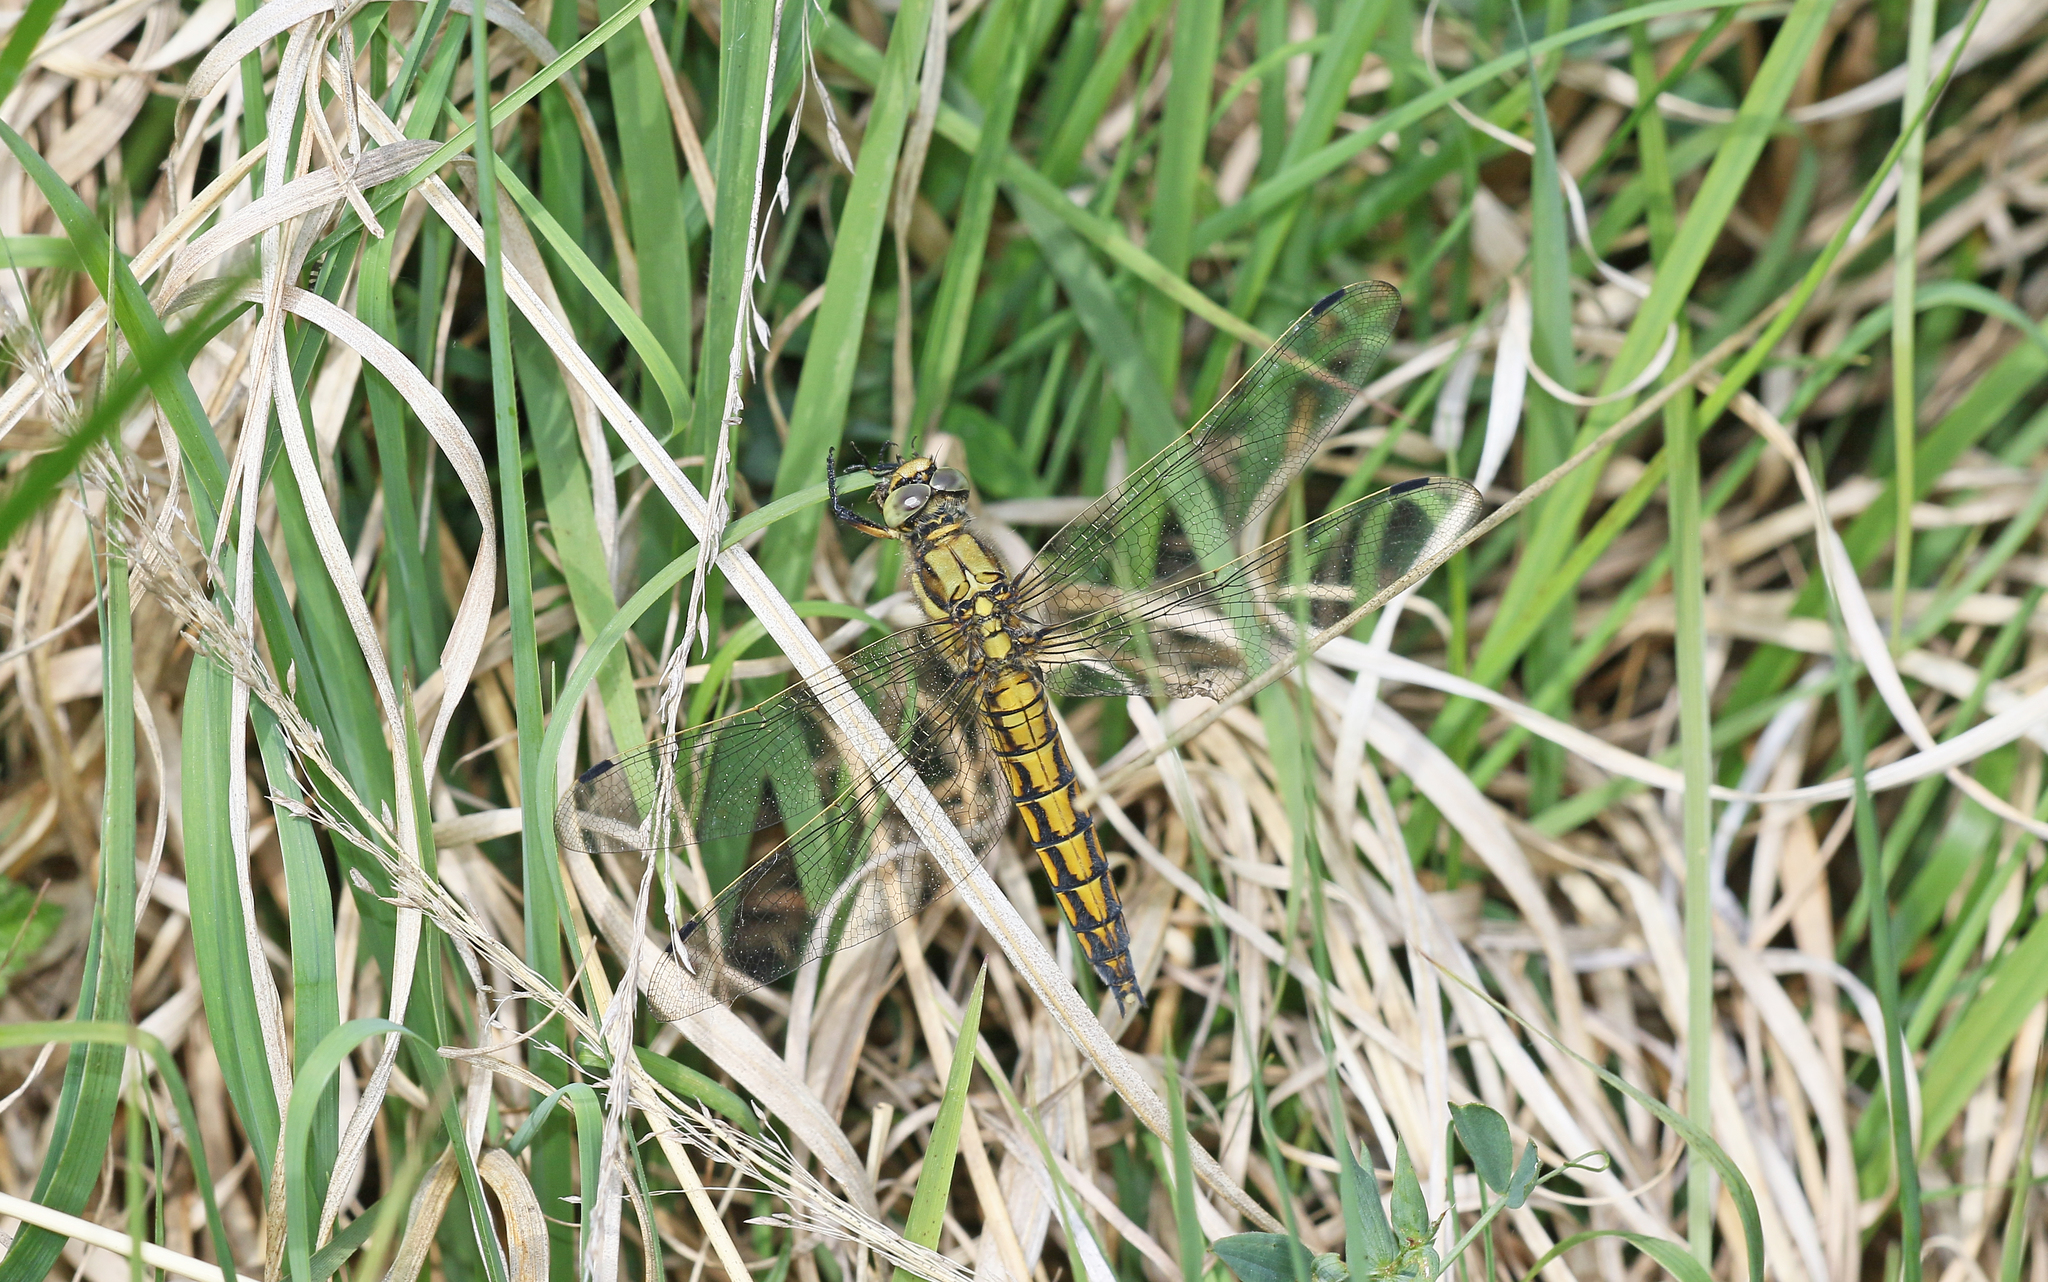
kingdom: Animalia
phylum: Arthropoda
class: Insecta
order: Odonata
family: Libellulidae
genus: Orthetrum
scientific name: Orthetrum cancellatum
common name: Black-tailed skimmer
